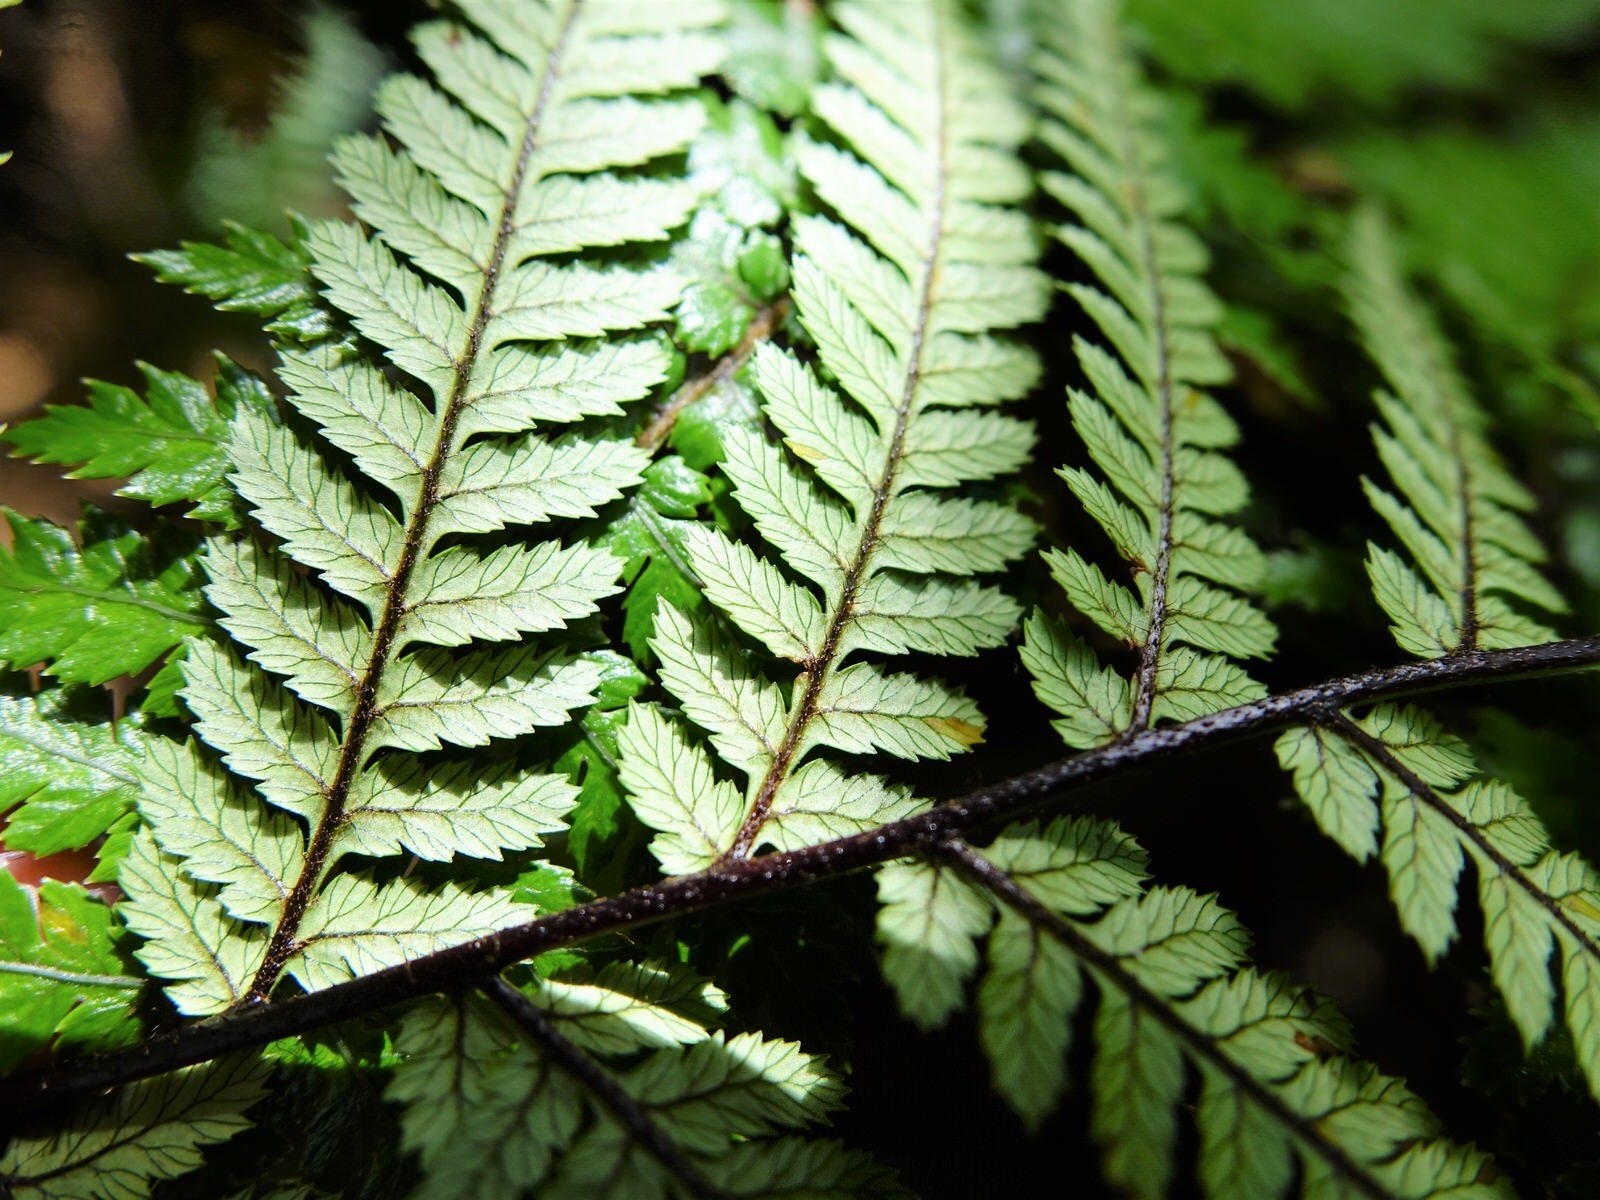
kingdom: Plantae
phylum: Tracheophyta
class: Polypodiopsida
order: Cyatheales
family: Dicksoniaceae
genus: Dicksonia
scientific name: Dicksonia squarrosa
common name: Hard treefern
